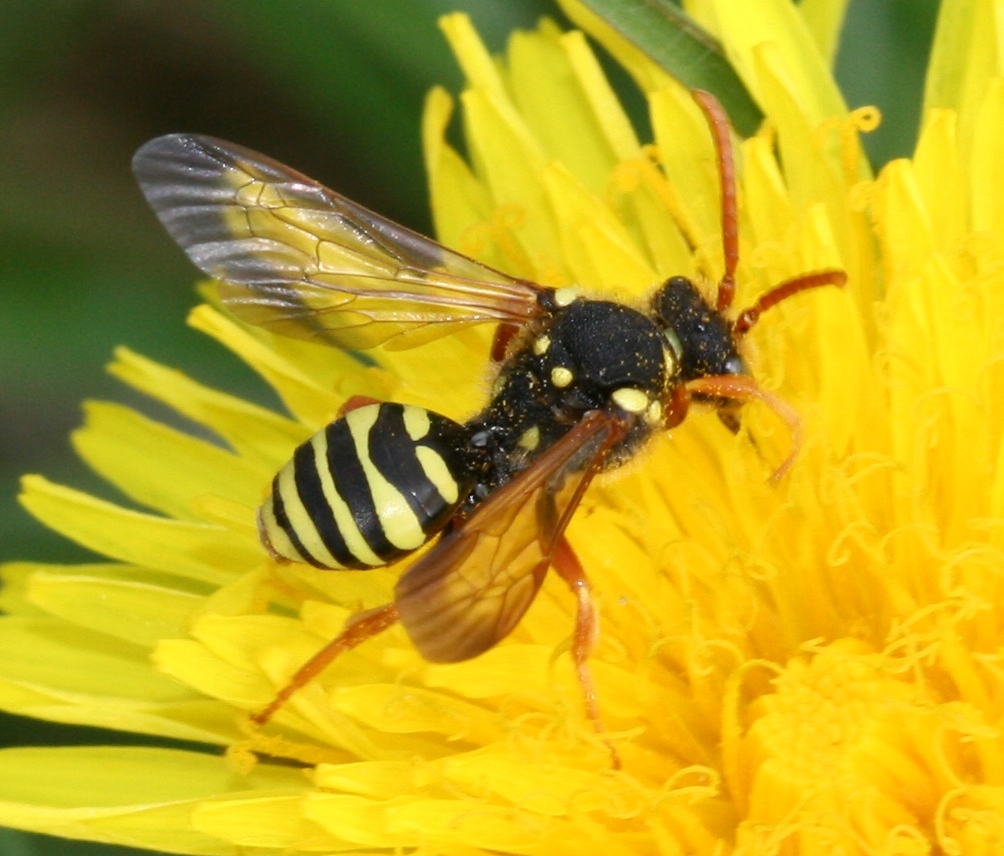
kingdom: Animalia
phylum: Arthropoda
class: Insecta
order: Hymenoptera
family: Apidae
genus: Nomada
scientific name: Nomada goodeniana
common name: Gooden's nomad bee
